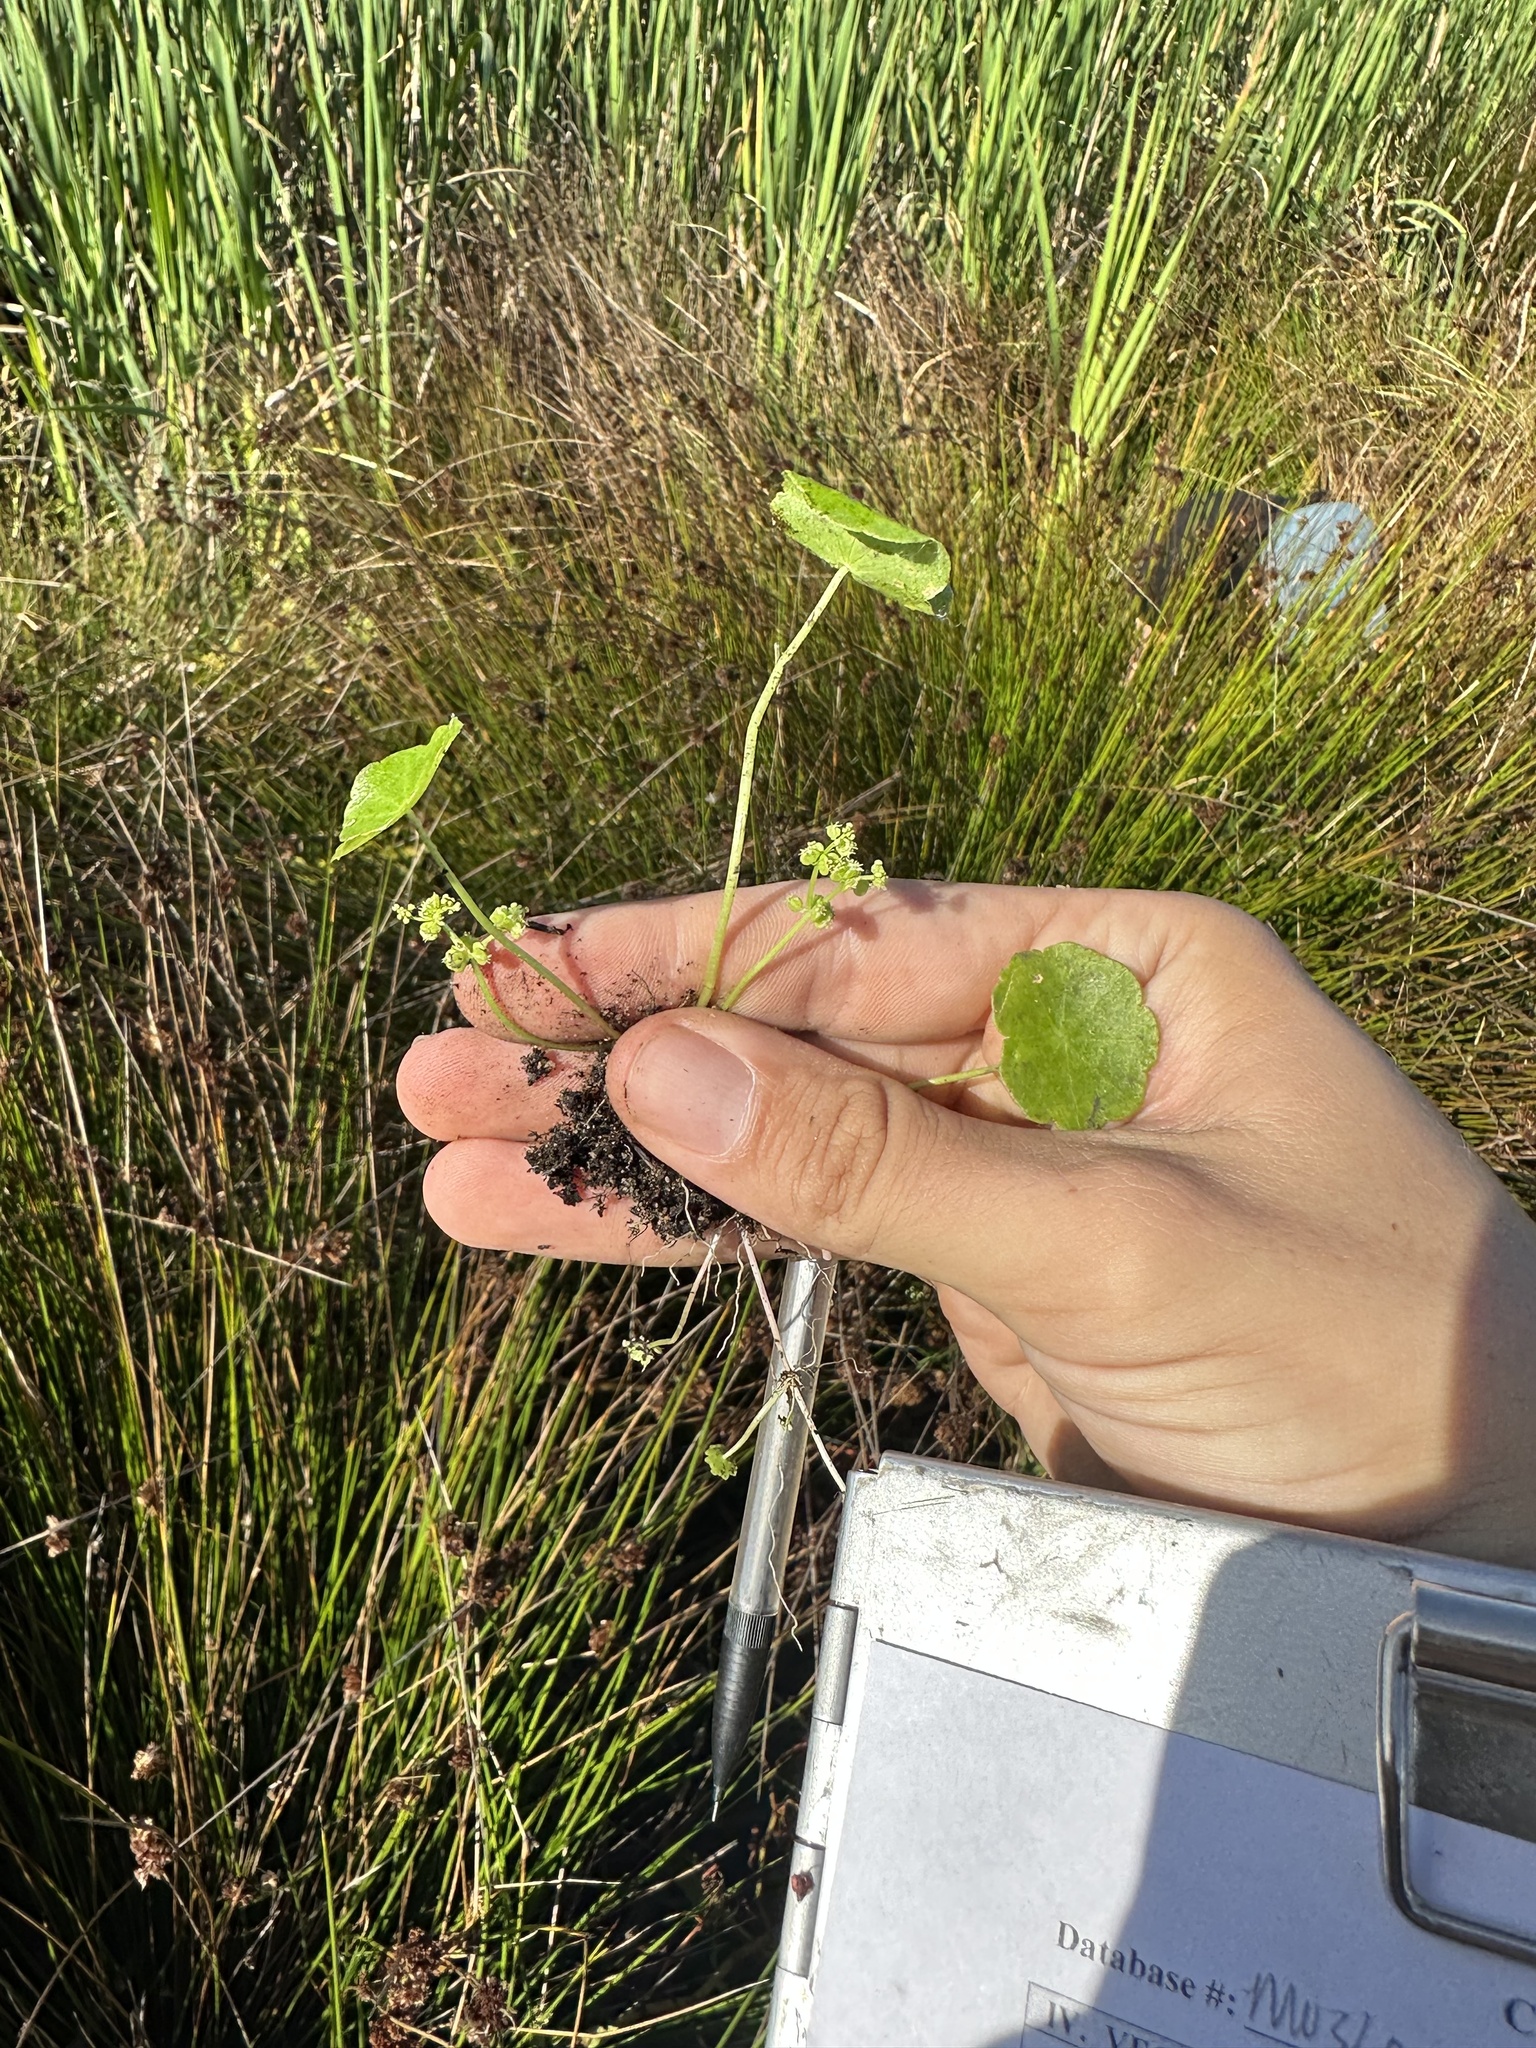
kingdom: Plantae
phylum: Tracheophyta
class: Magnoliopsida
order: Apiales
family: Araliaceae
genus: Hydrocotyle
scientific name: Hydrocotyle verticillata
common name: Whorled marshpennywort
